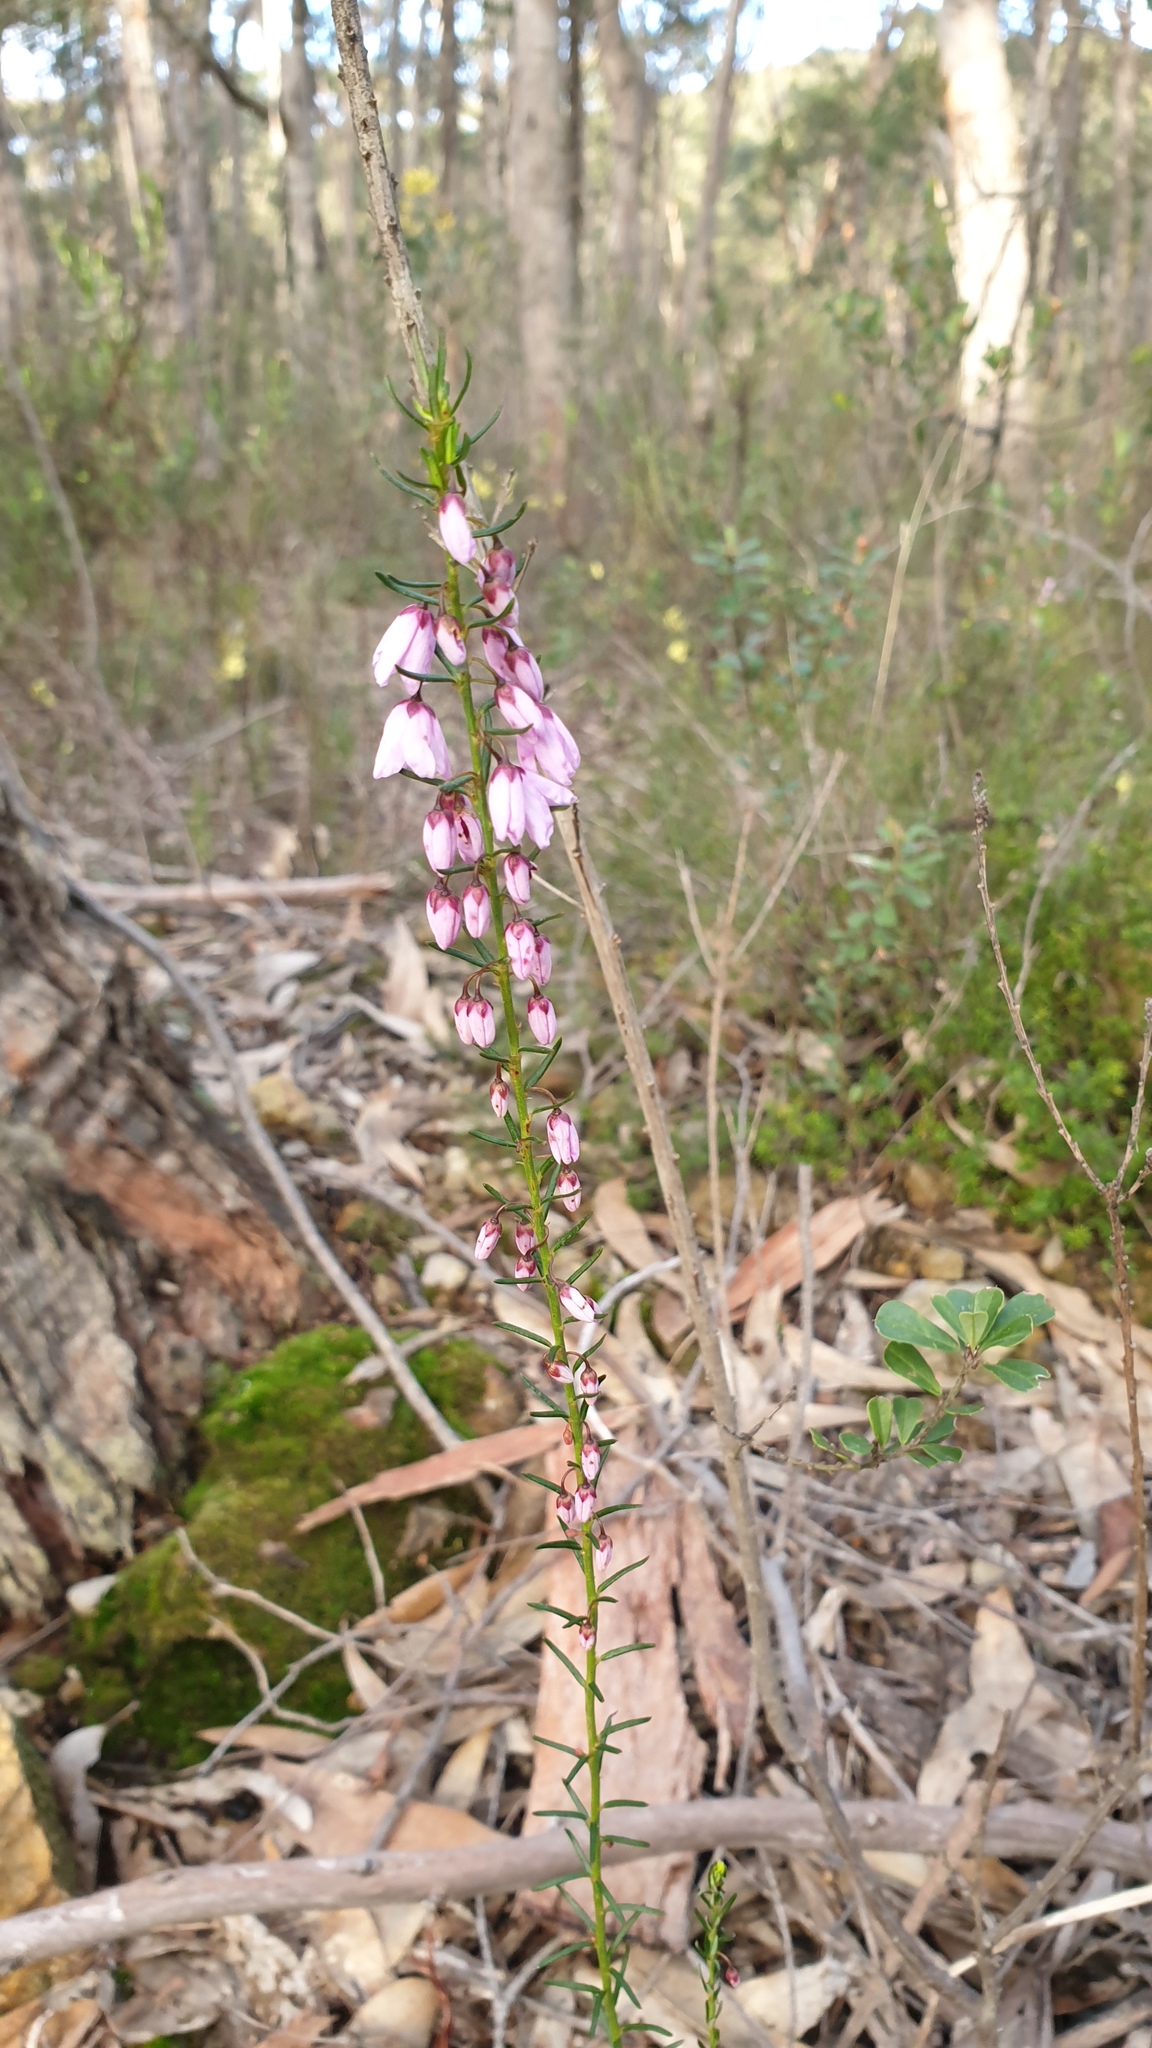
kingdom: Plantae
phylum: Tracheophyta
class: Magnoliopsida
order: Oxalidales
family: Elaeocarpaceae
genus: Tetratheca
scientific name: Tetratheca pilosa
